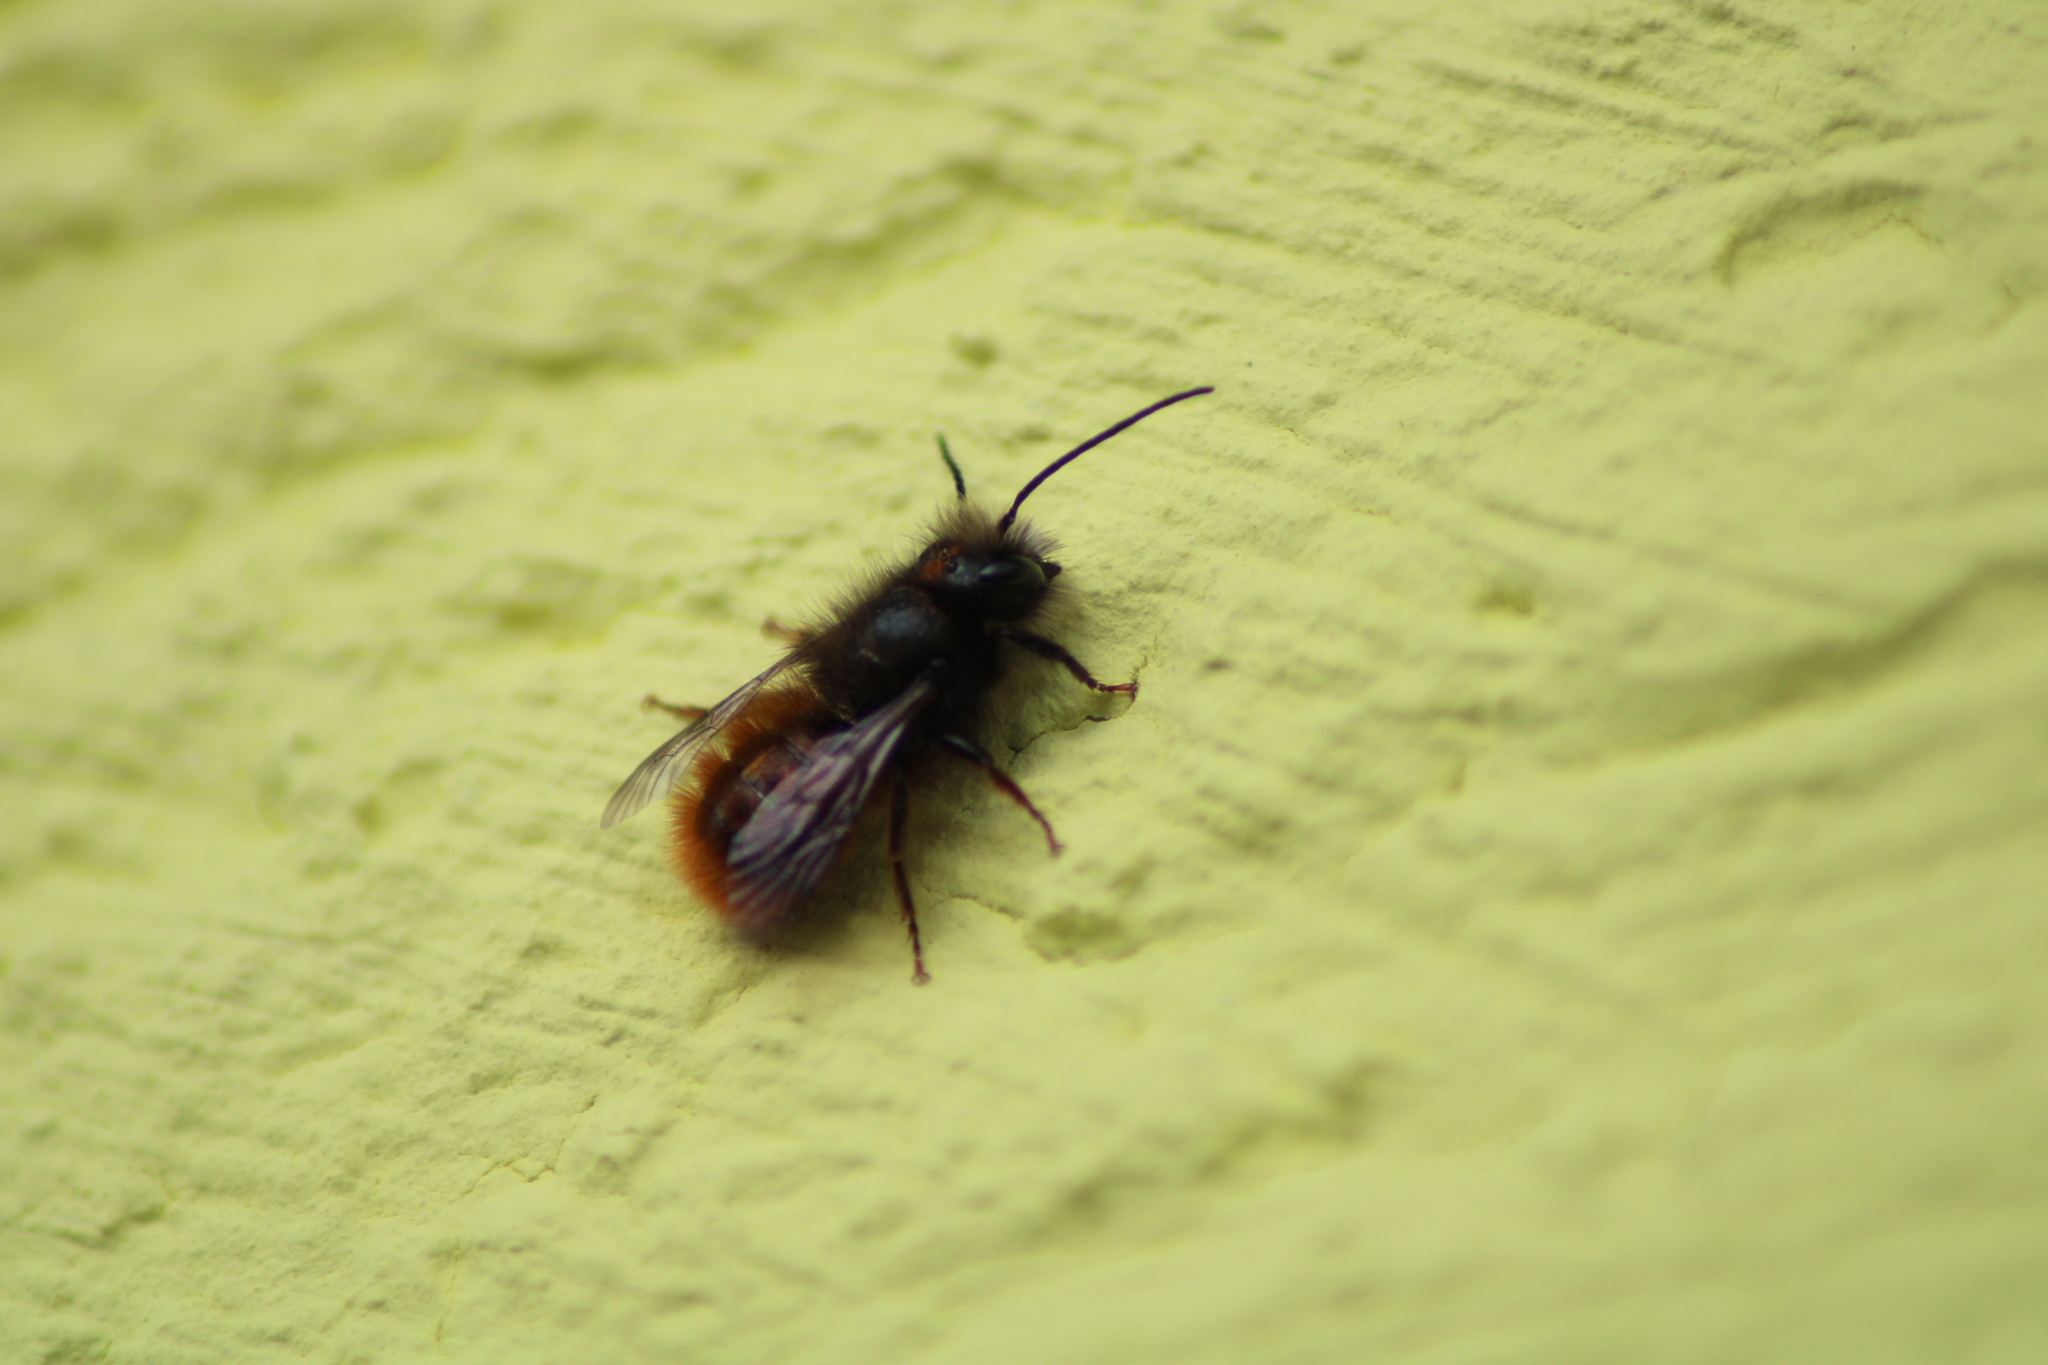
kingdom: Animalia
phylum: Arthropoda
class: Insecta
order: Hymenoptera
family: Megachilidae
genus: Osmia
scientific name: Osmia cornuta
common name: Mason bee
